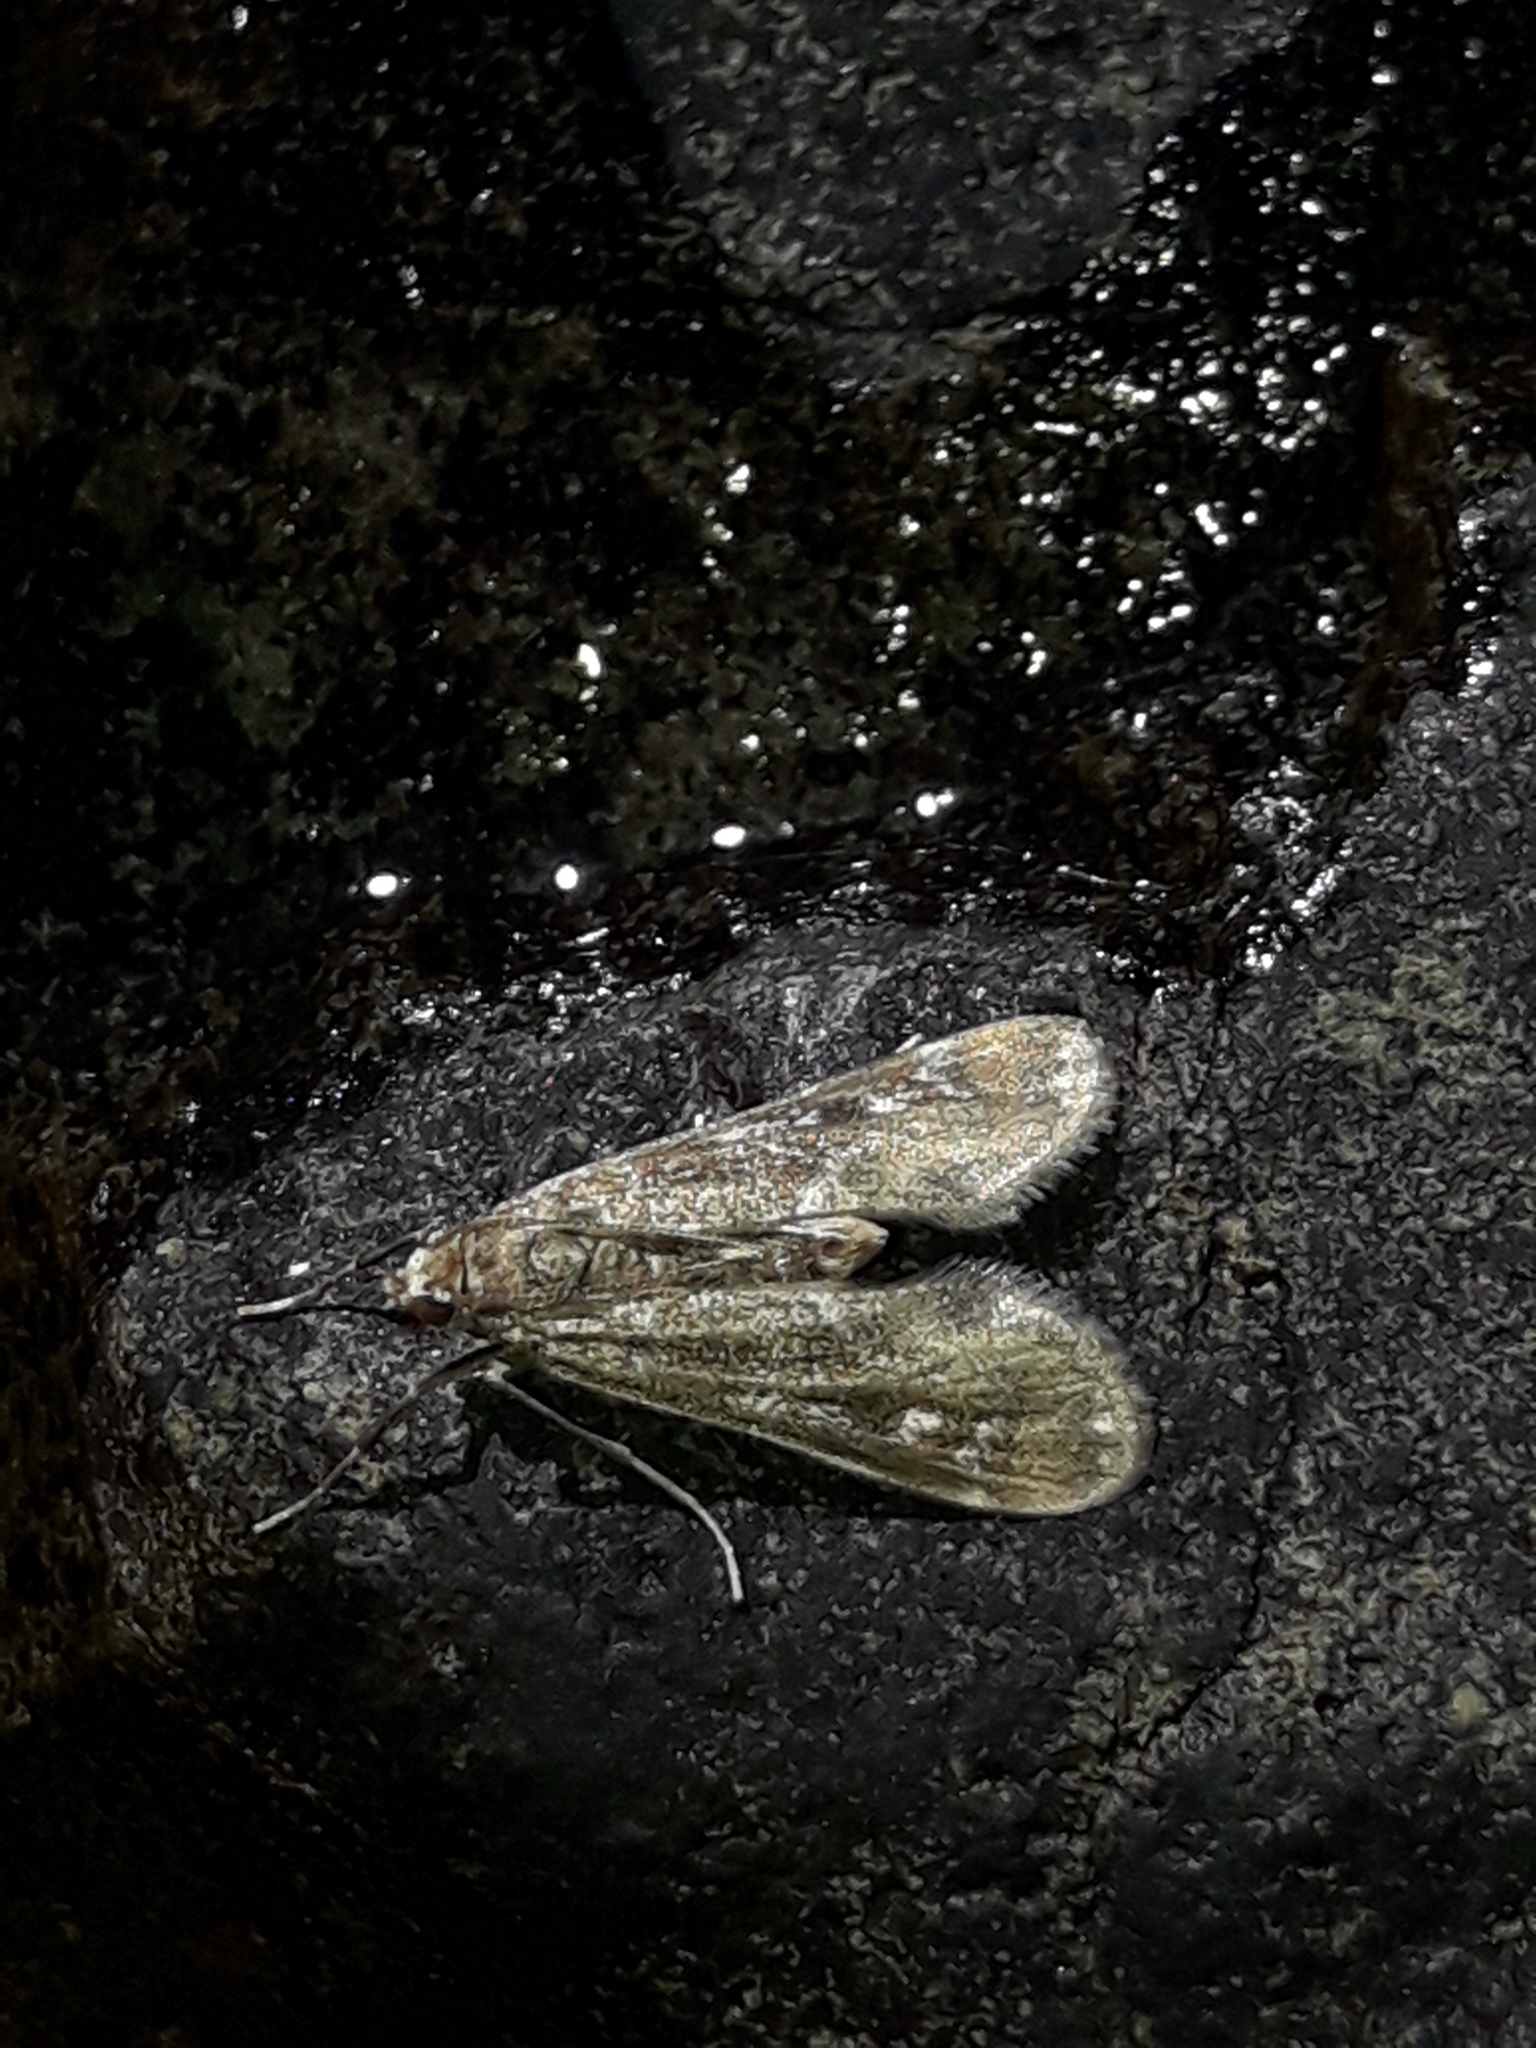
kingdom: Animalia
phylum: Arthropoda
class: Insecta
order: Lepidoptera
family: Crambidae
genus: Hygraula
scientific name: Hygraula nitens
